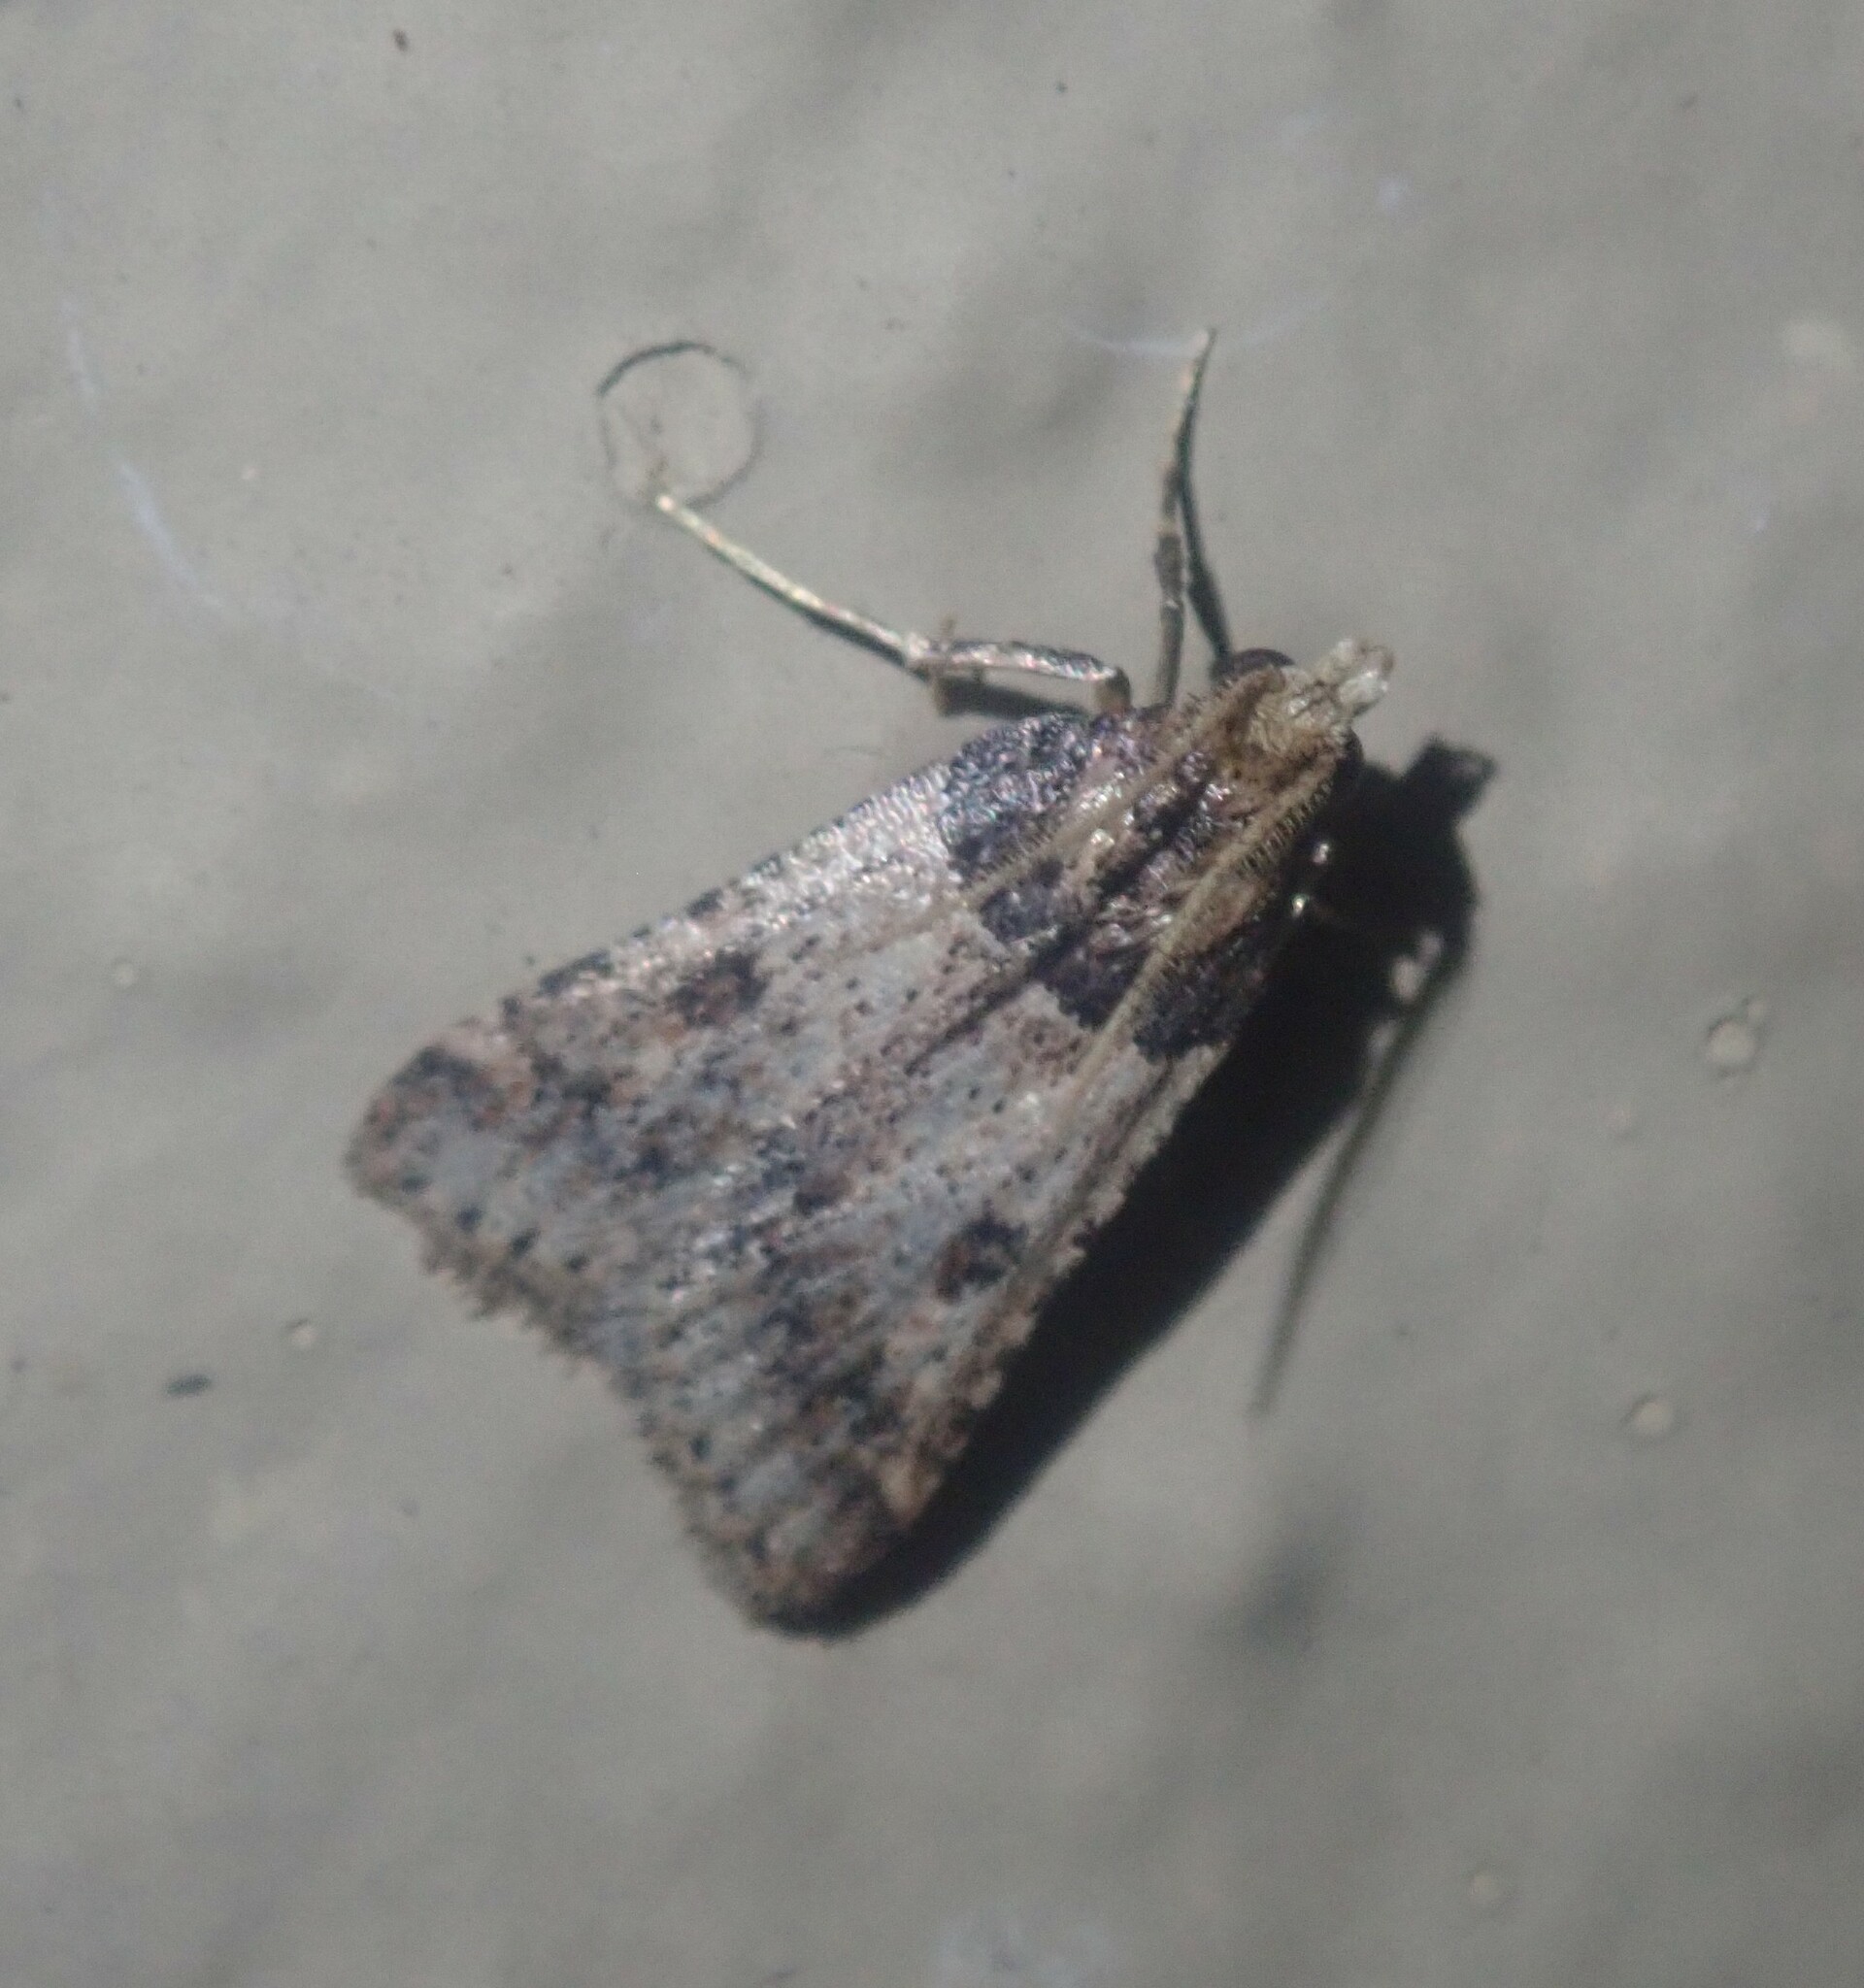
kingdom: Animalia
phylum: Arthropoda
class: Insecta
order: Lepidoptera
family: Pyralidae
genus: Philotis
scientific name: Philotis basalis
